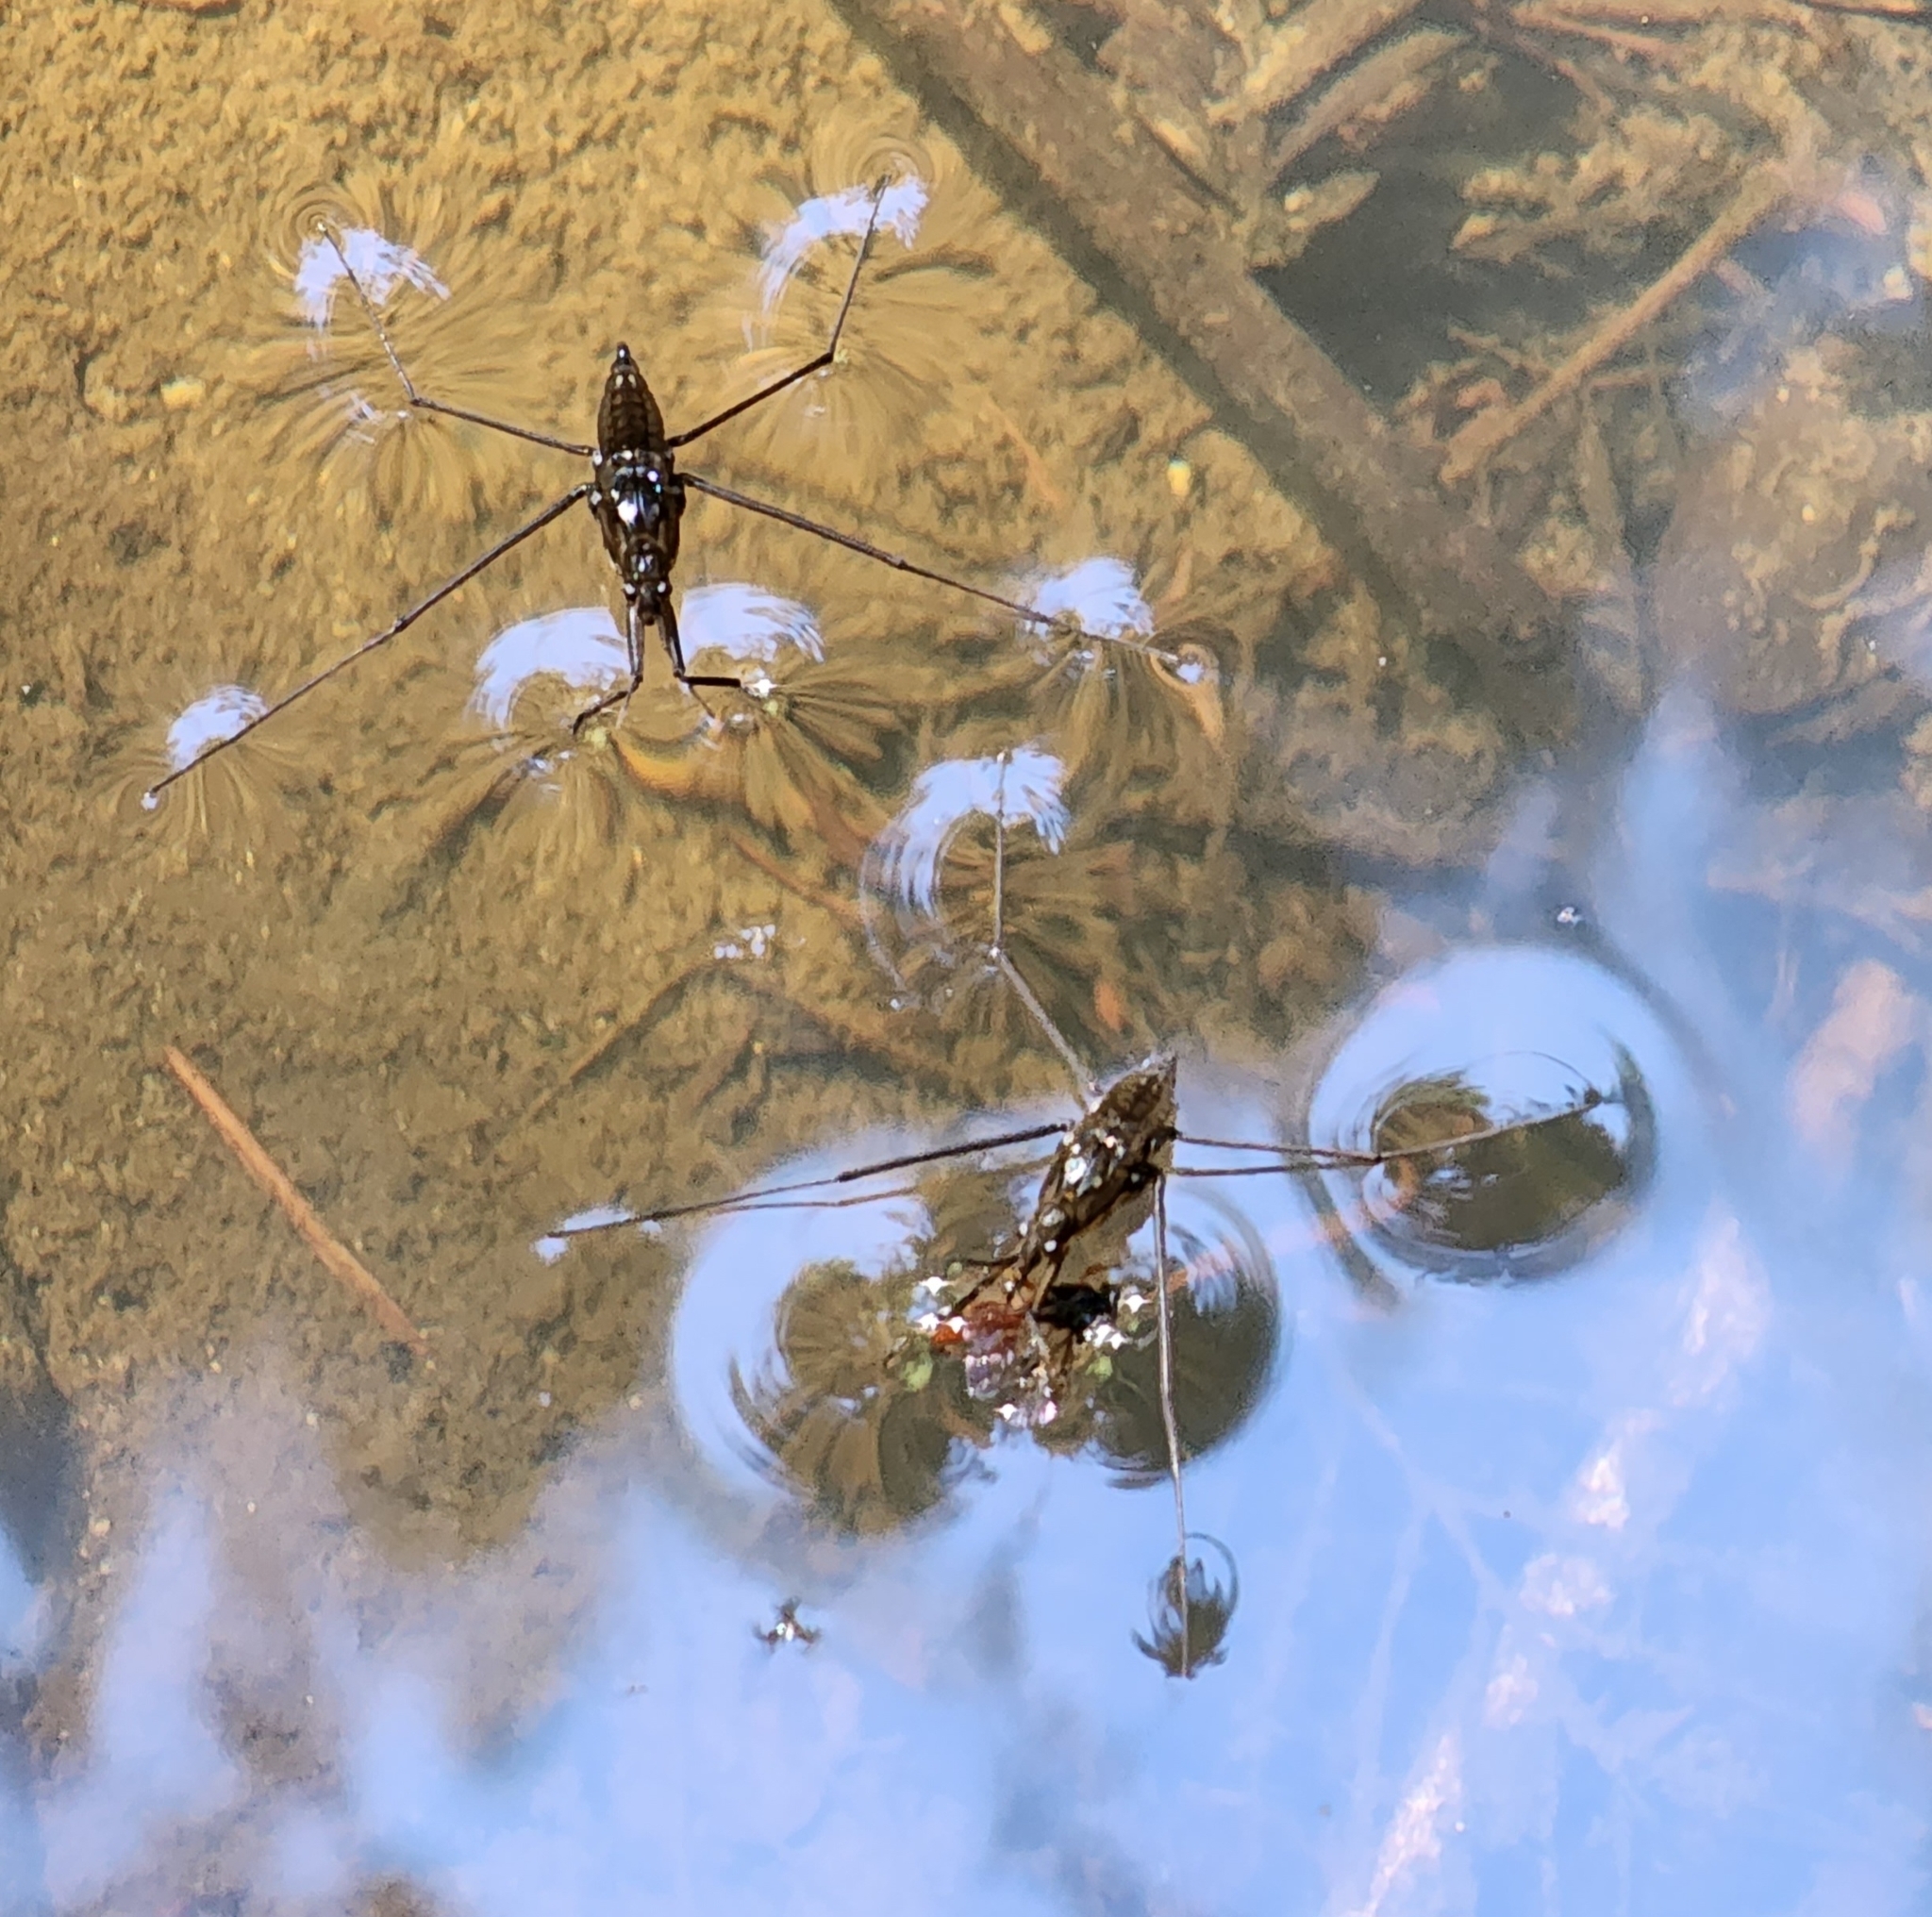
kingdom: Animalia
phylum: Arthropoda
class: Insecta
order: Hemiptera
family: Gerridae
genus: Aquarius
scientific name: Aquarius remigis
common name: Common water strider
